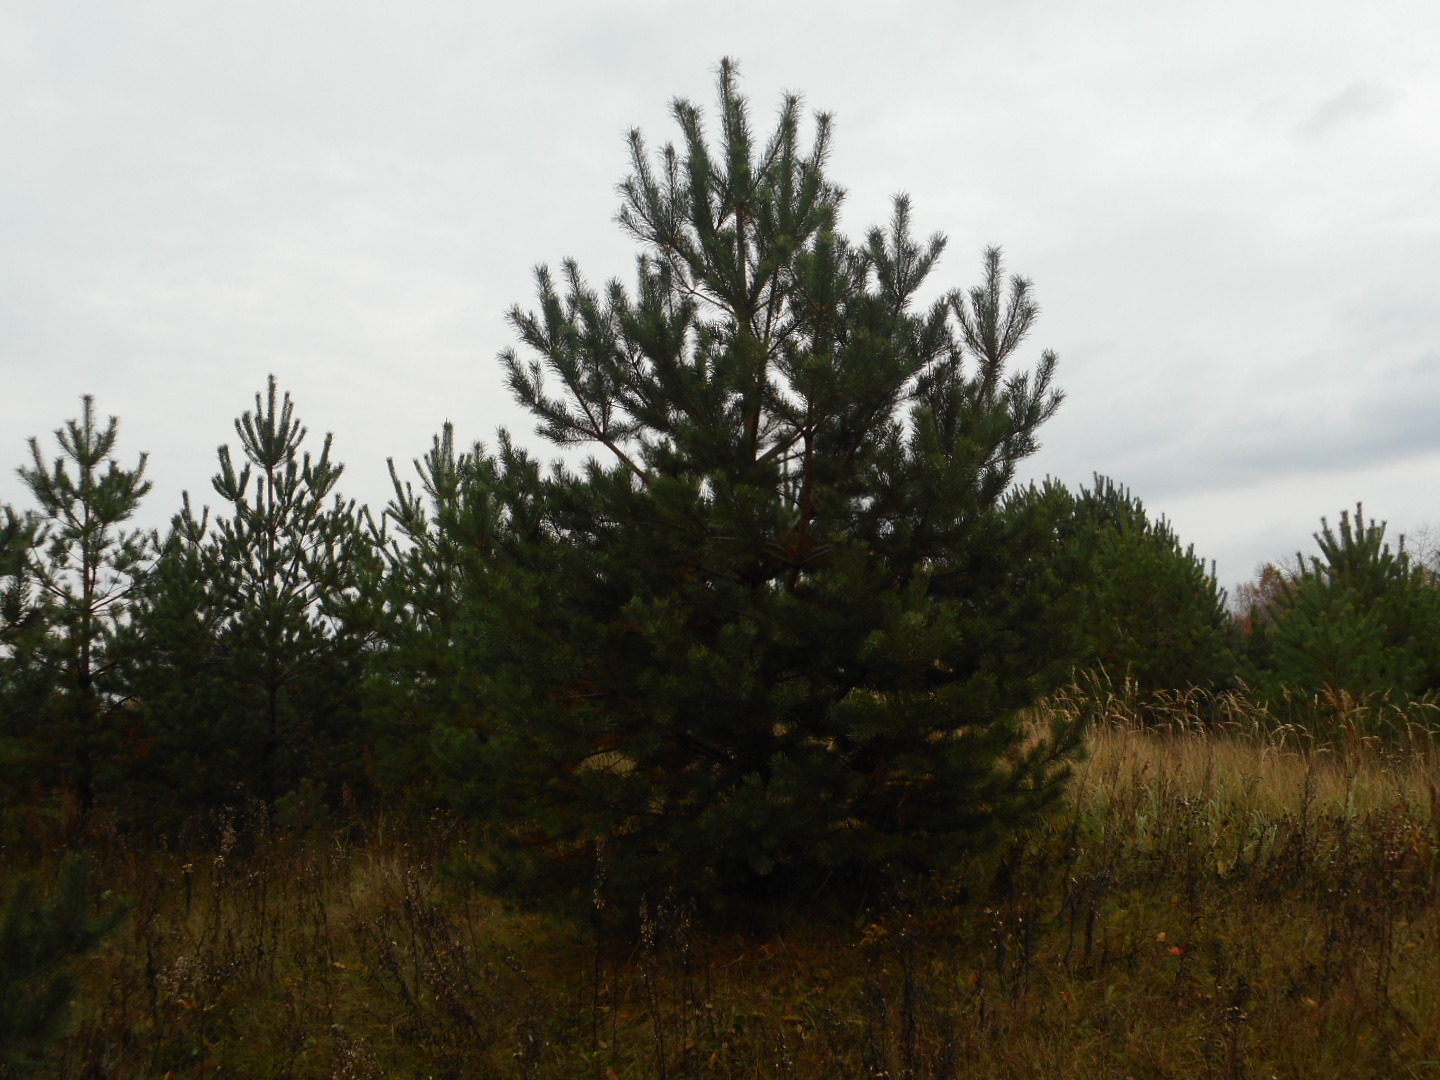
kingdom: Plantae
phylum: Tracheophyta
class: Pinopsida
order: Pinales
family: Pinaceae
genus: Pinus
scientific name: Pinus sylvestris
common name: Scots pine
